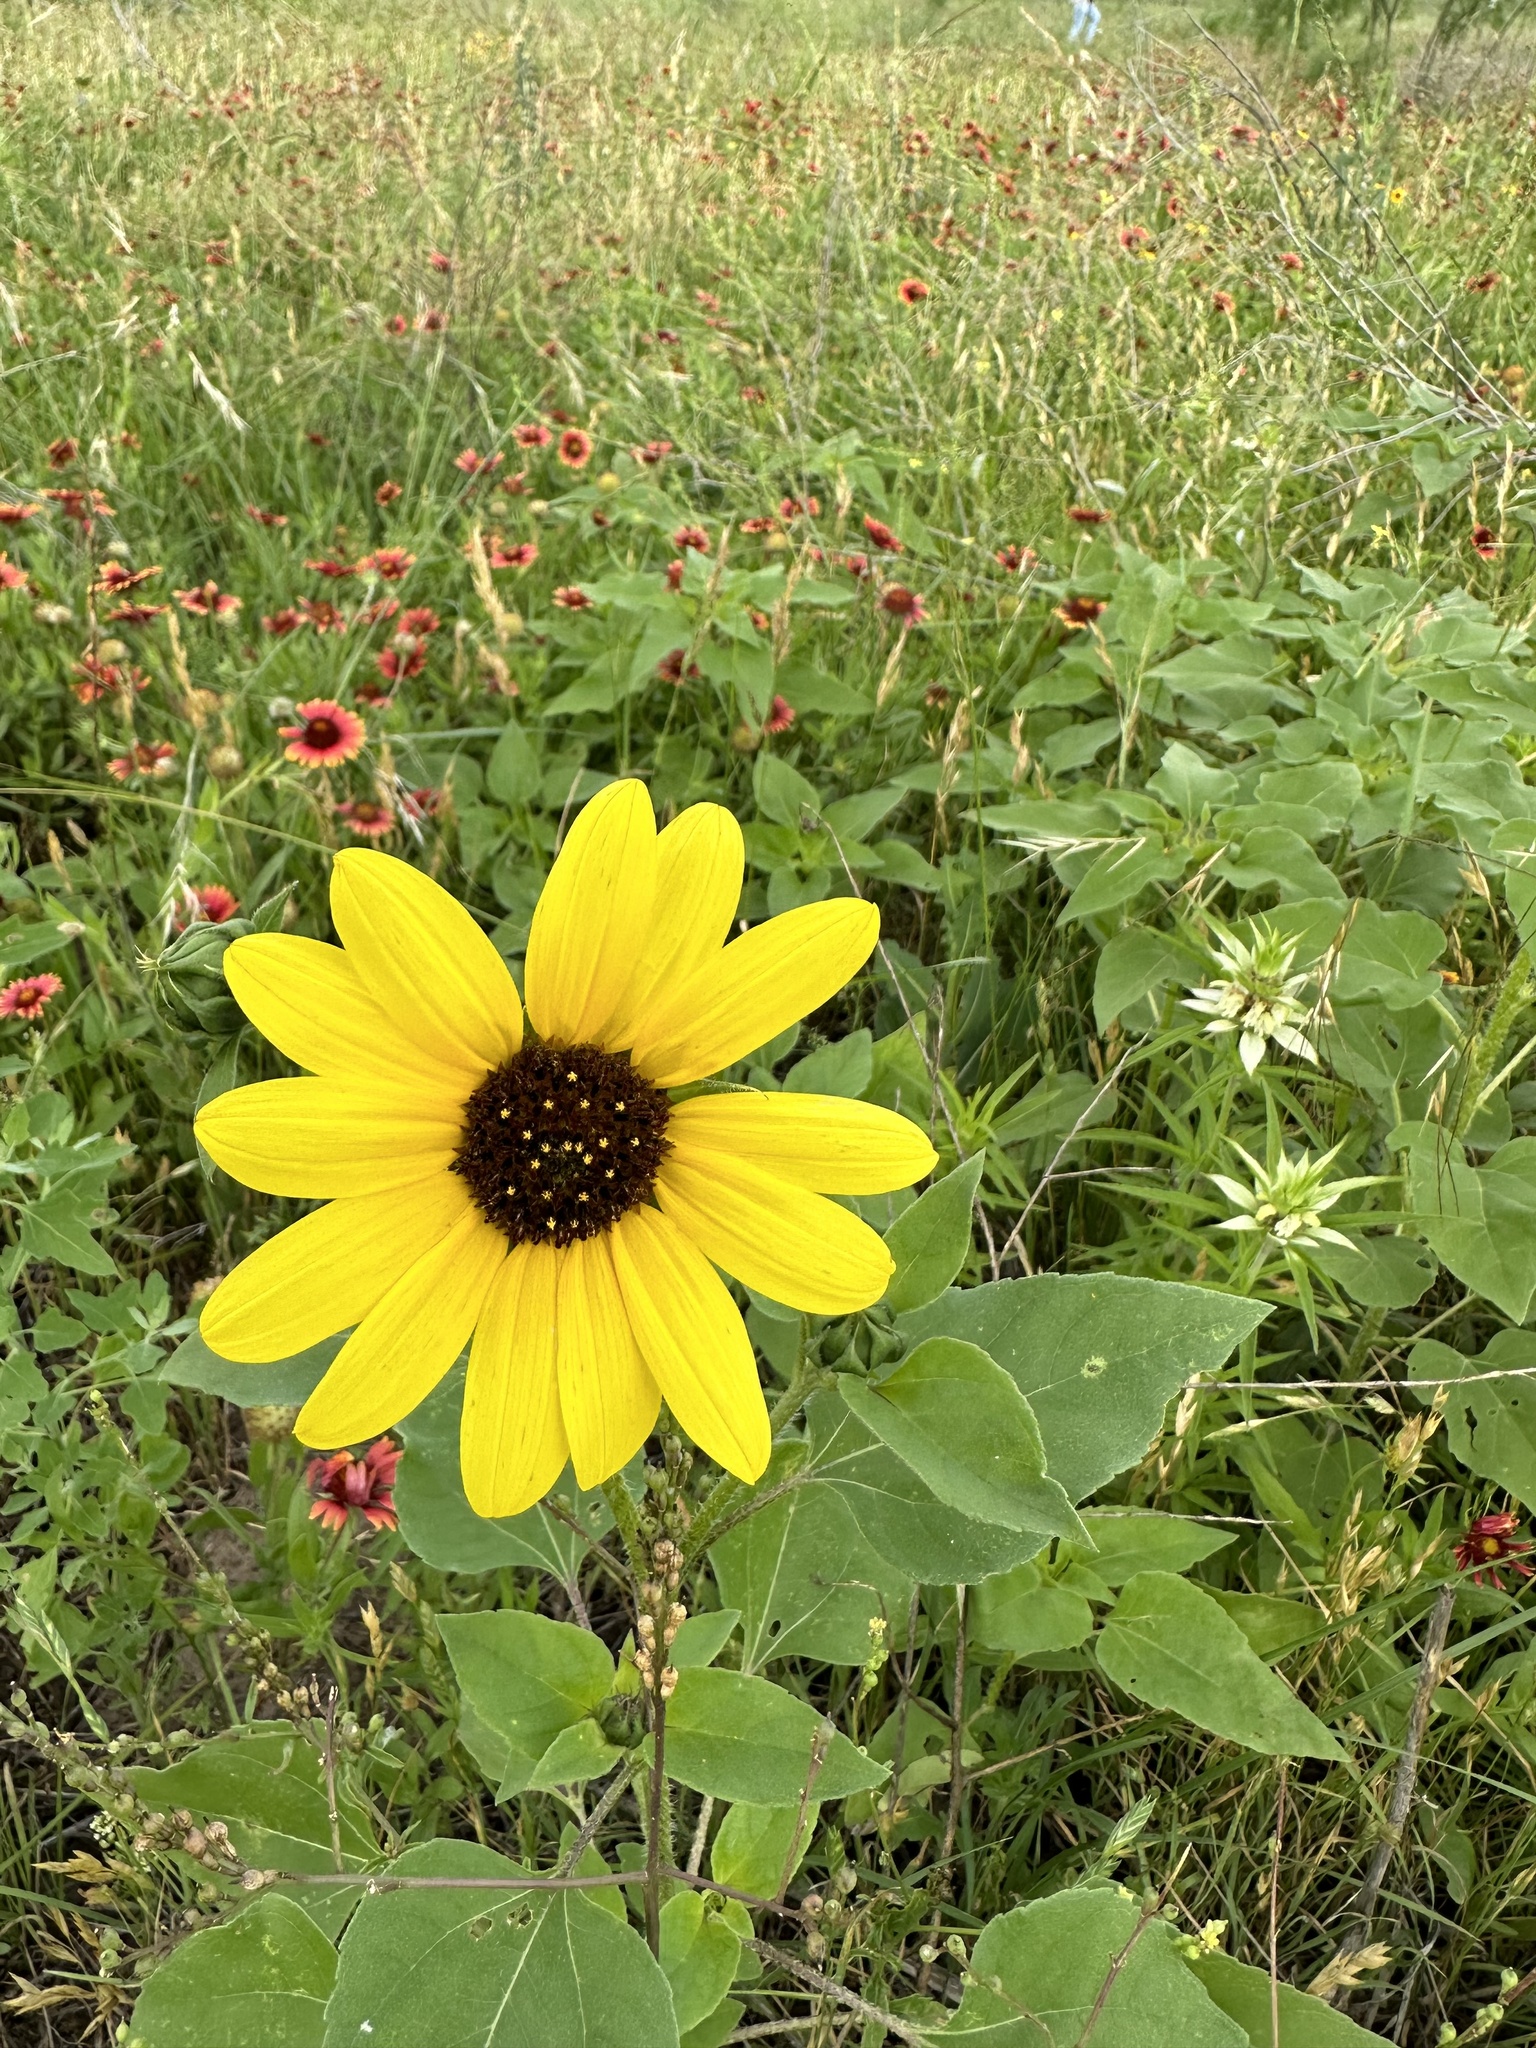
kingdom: Plantae
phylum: Tracheophyta
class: Magnoliopsida
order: Asterales
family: Asteraceae
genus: Helianthus
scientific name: Helianthus annuus
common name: Sunflower
